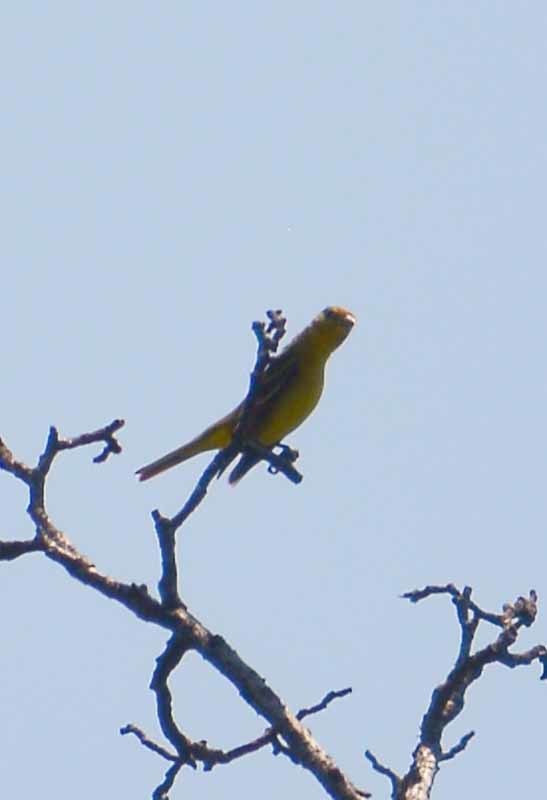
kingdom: Animalia
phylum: Chordata
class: Aves
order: Passeriformes
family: Cardinalidae
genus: Piranga
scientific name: Piranga ludoviciana
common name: Western tanager
